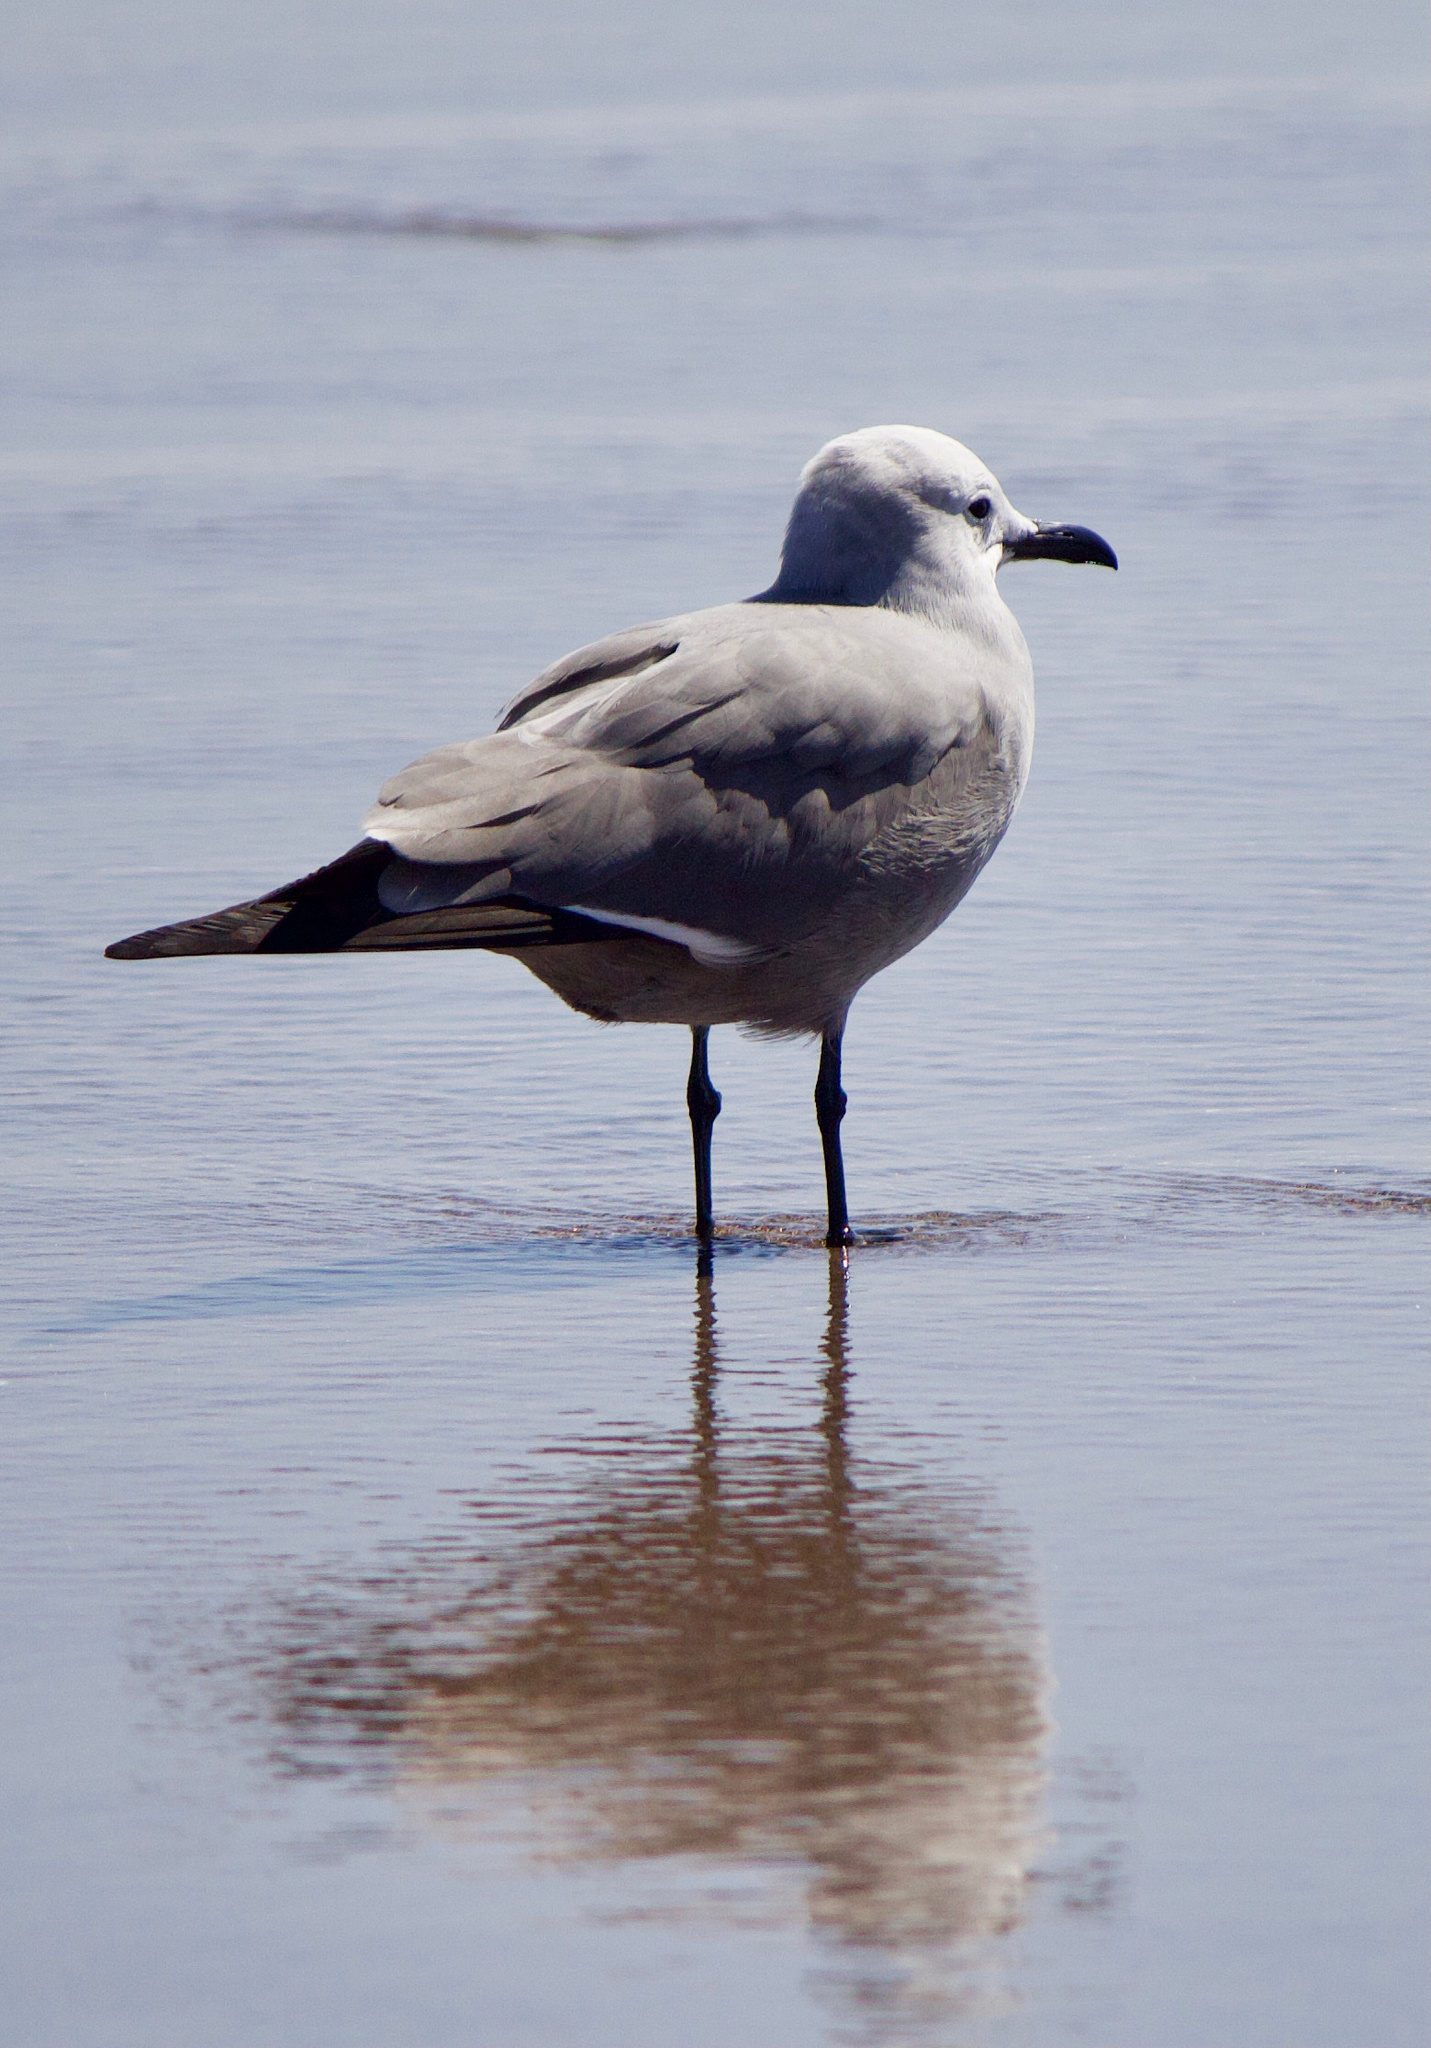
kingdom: Animalia
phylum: Chordata
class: Aves
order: Charadriiformes
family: Laridae
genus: Leucophaeus
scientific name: Leucophaeus modestus
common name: Gray gull
